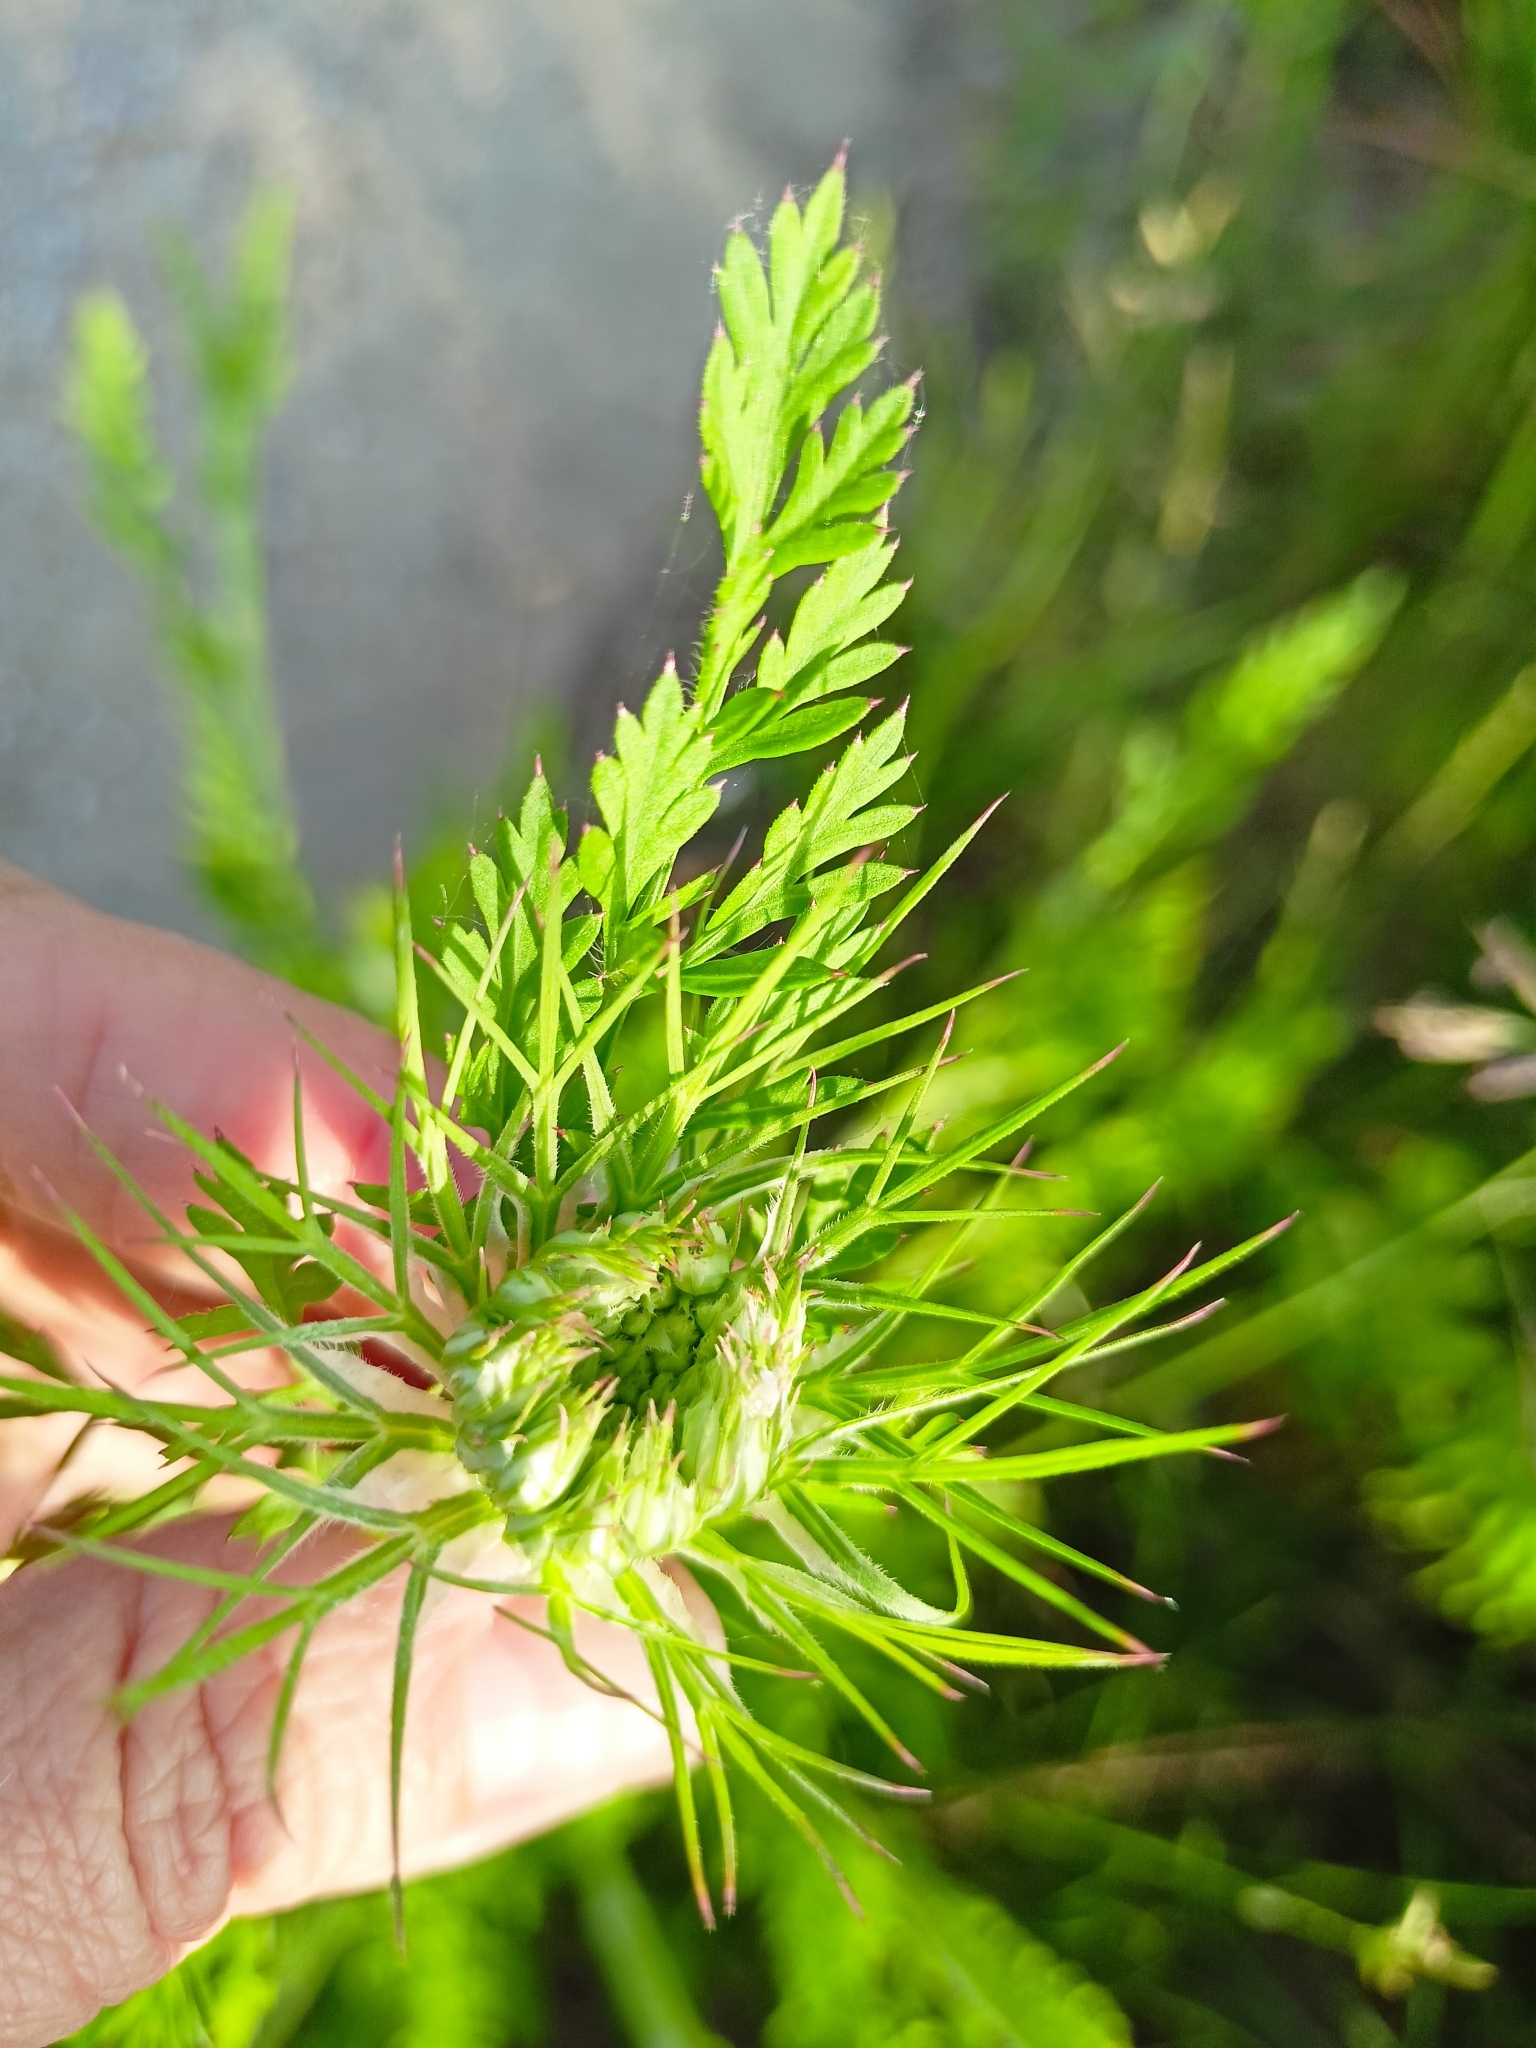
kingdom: Plantae
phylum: Tracheophyta
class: Magnoliopsida
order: Apiales
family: Apiaceae
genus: Daucus
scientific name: Daucus carota
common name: Wild carrot
